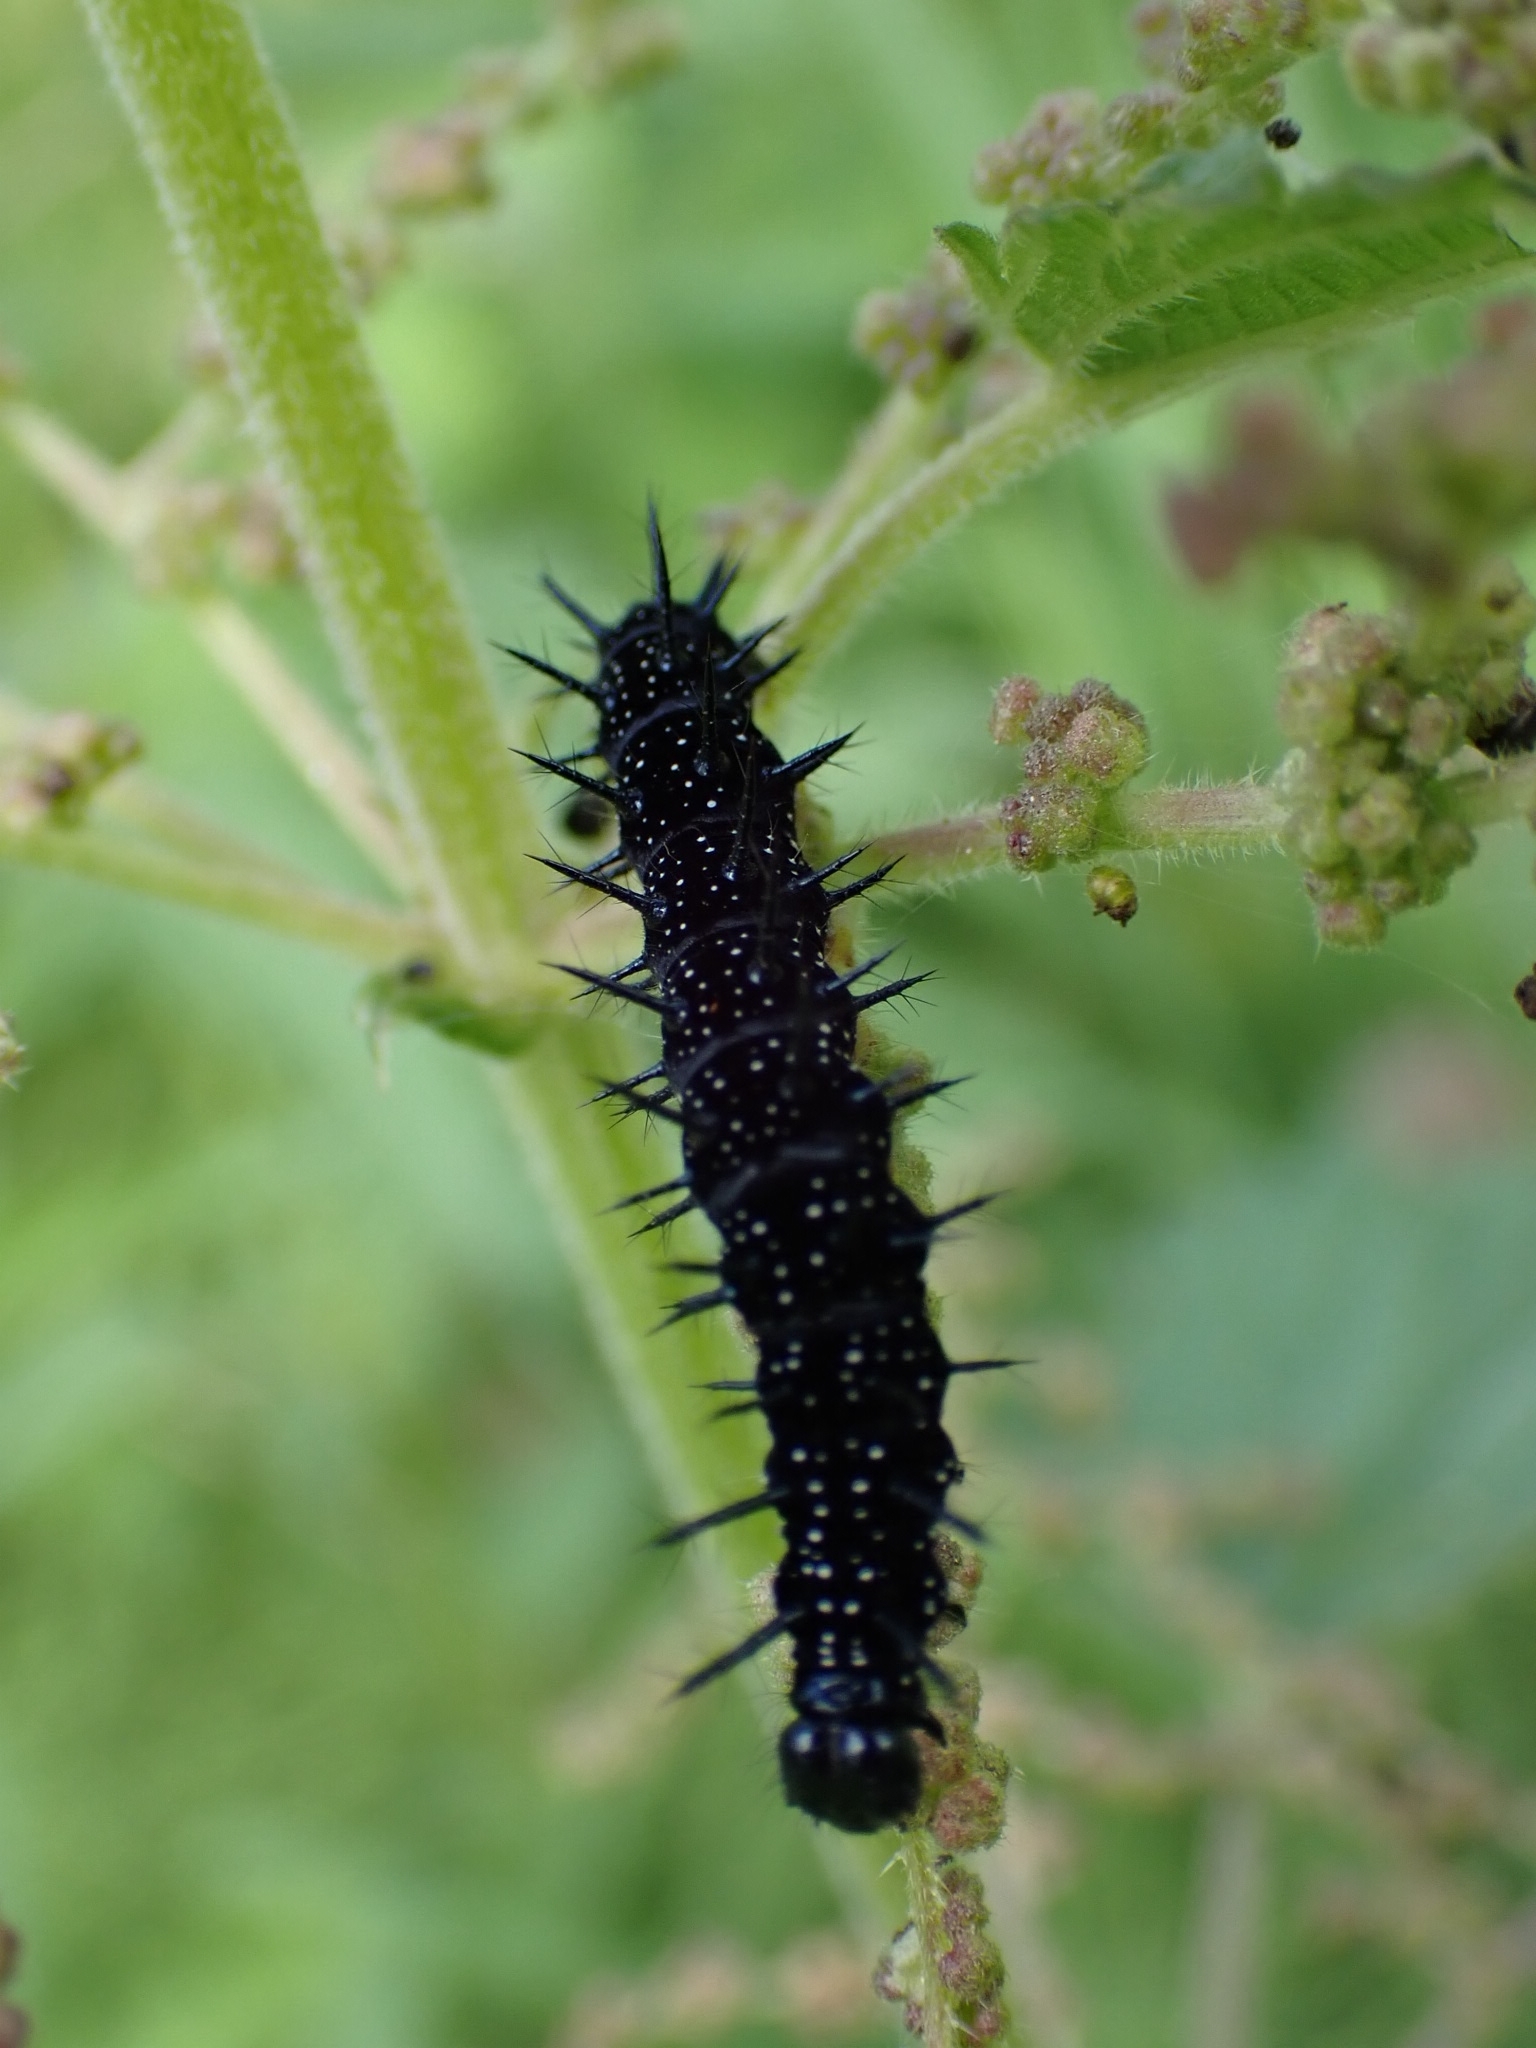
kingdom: Animalia
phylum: Arthropoda
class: Insecta
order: Lepidoptera
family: Nymphalidae
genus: Aglais
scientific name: Aglais io
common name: Peacock
